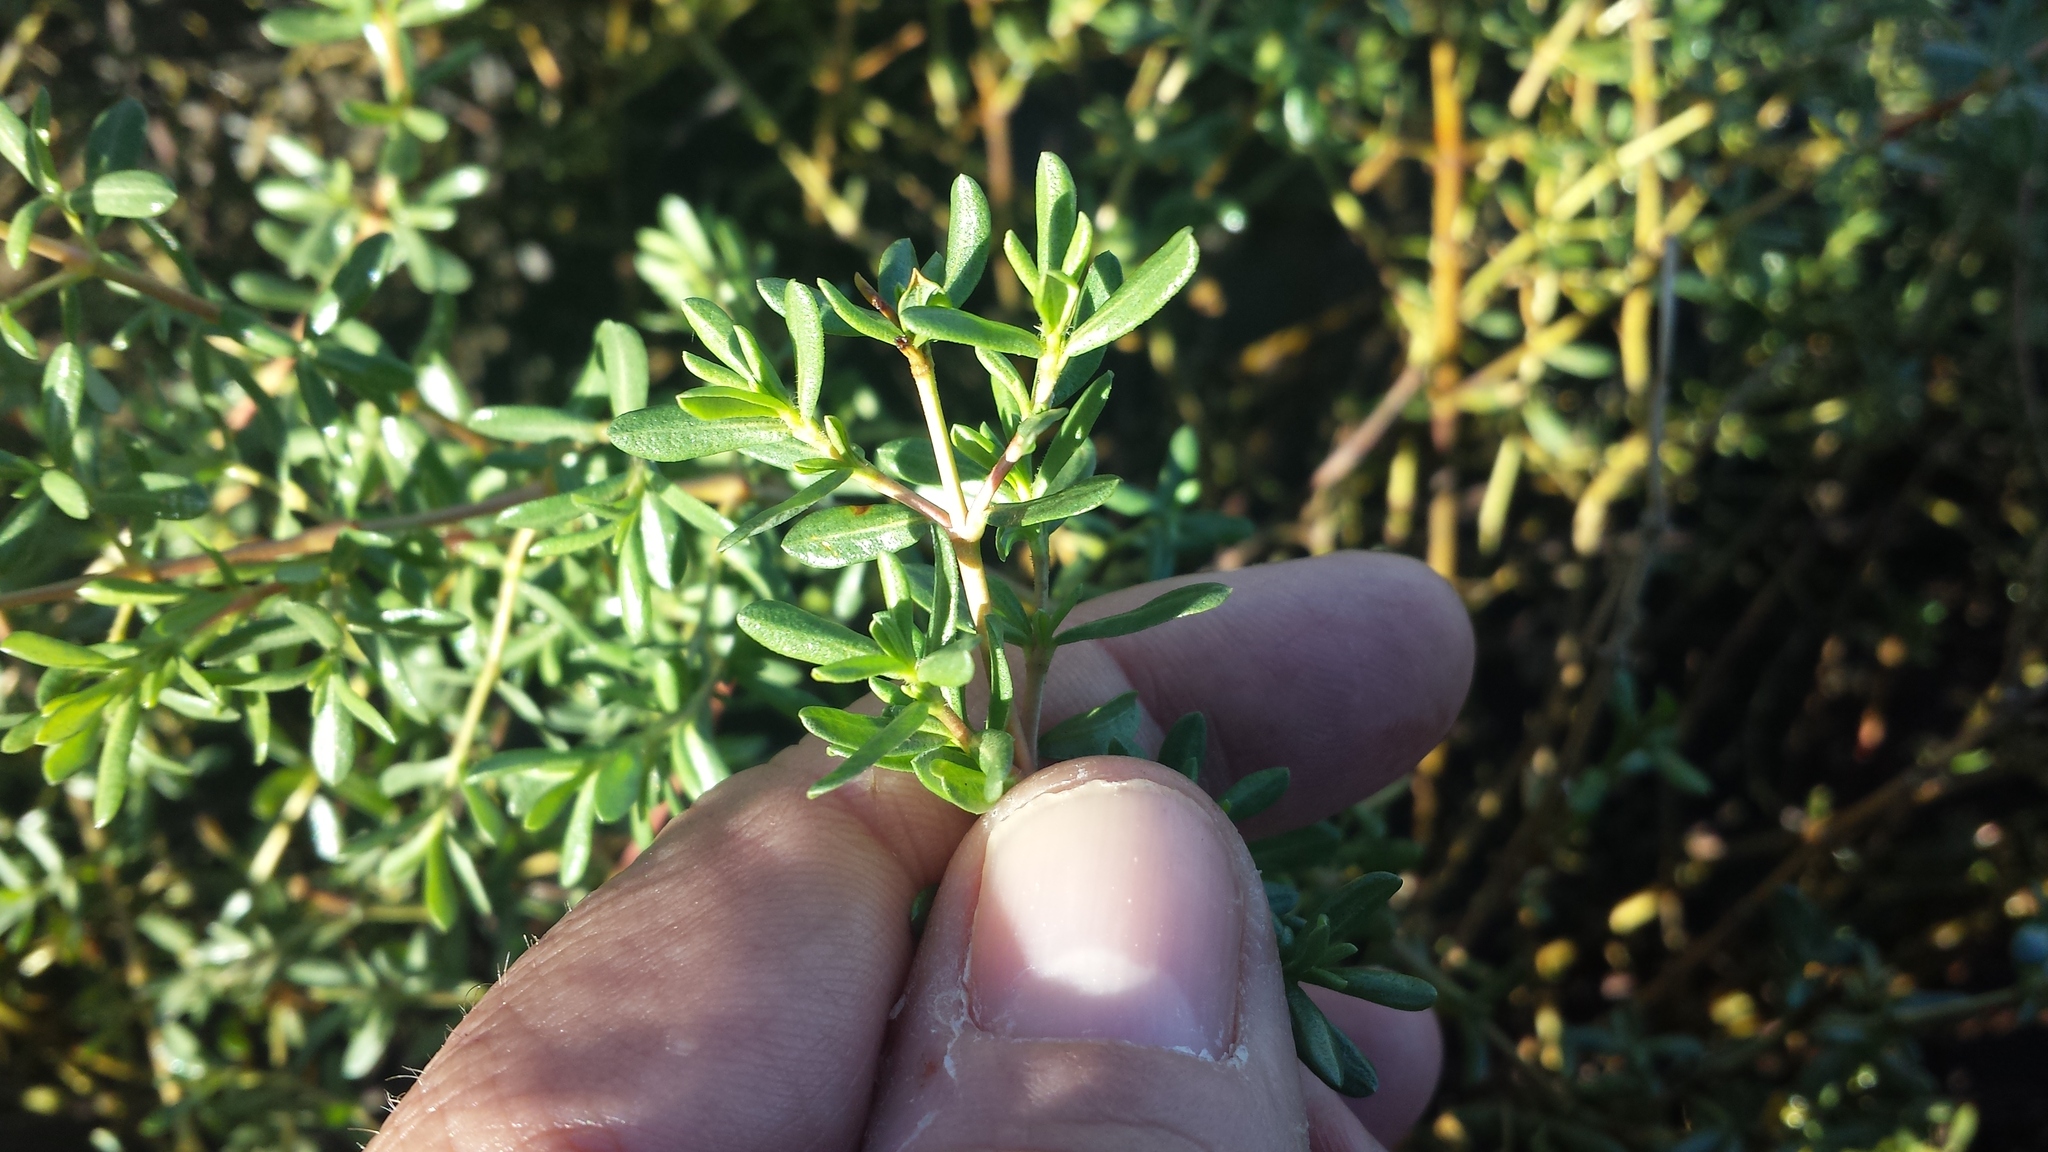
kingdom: Plantae
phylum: Tracheophyta
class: Magnoliopsida
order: Caryophyllales
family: Frankeniaceae
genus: Frankenia
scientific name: Frankenia salina
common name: Alkali seaheath
